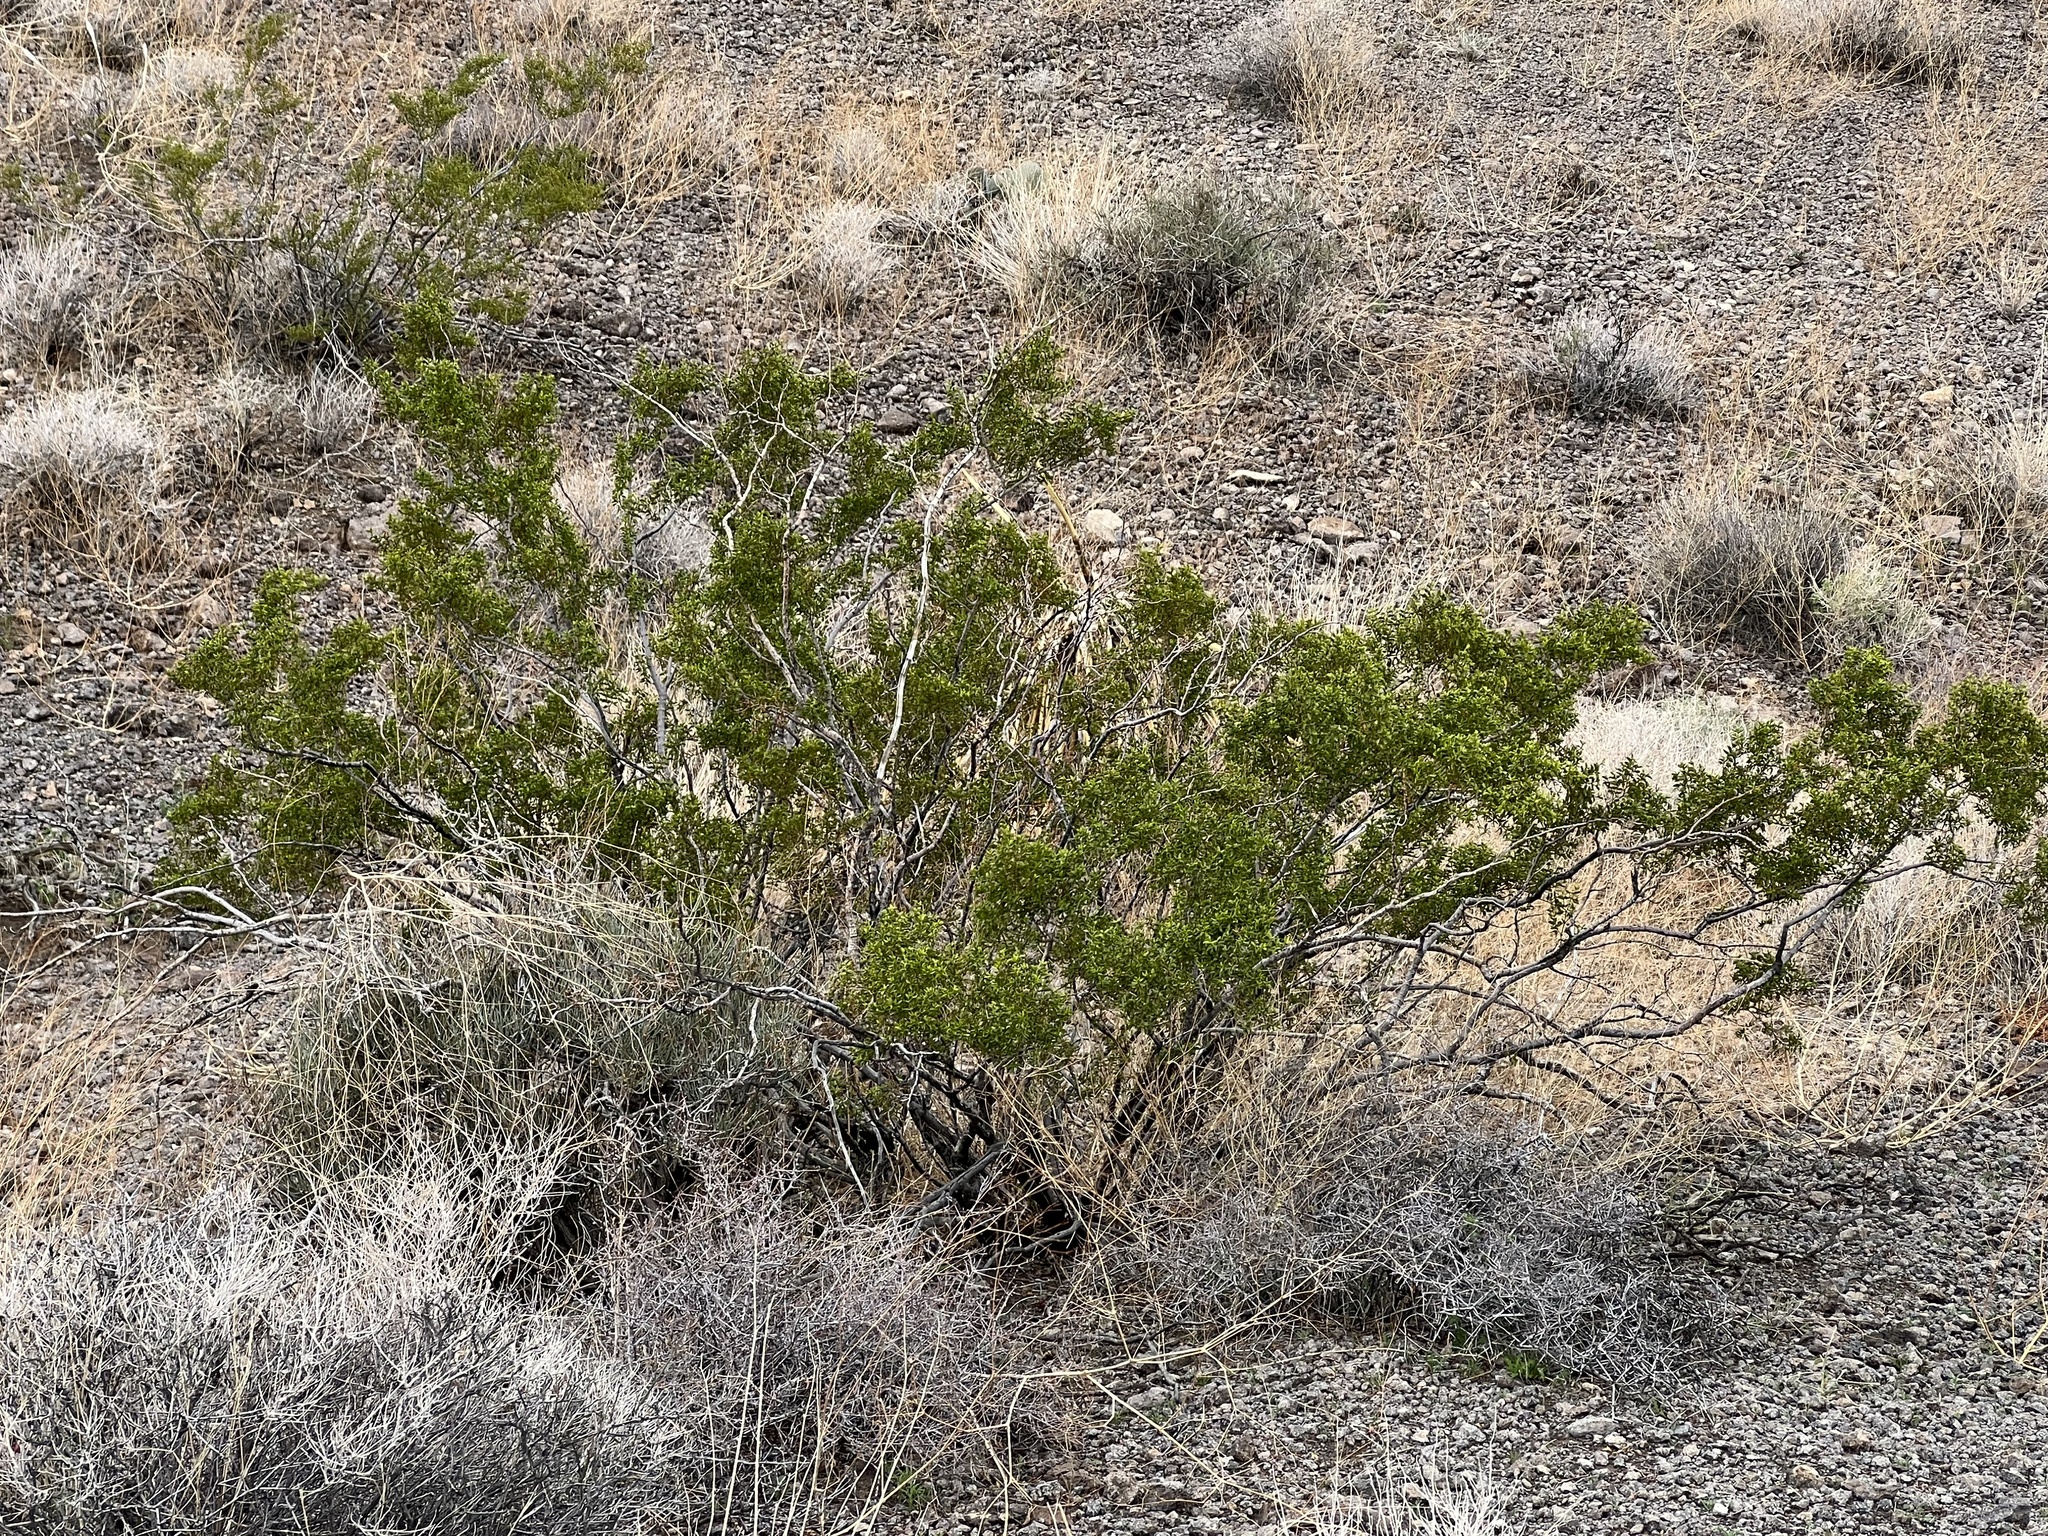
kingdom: Plantae
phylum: Tracheophyta
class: Magnoliopsida
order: Zygophyllales
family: Zygophyllaceae
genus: Larrea
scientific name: Larrea tridentata
